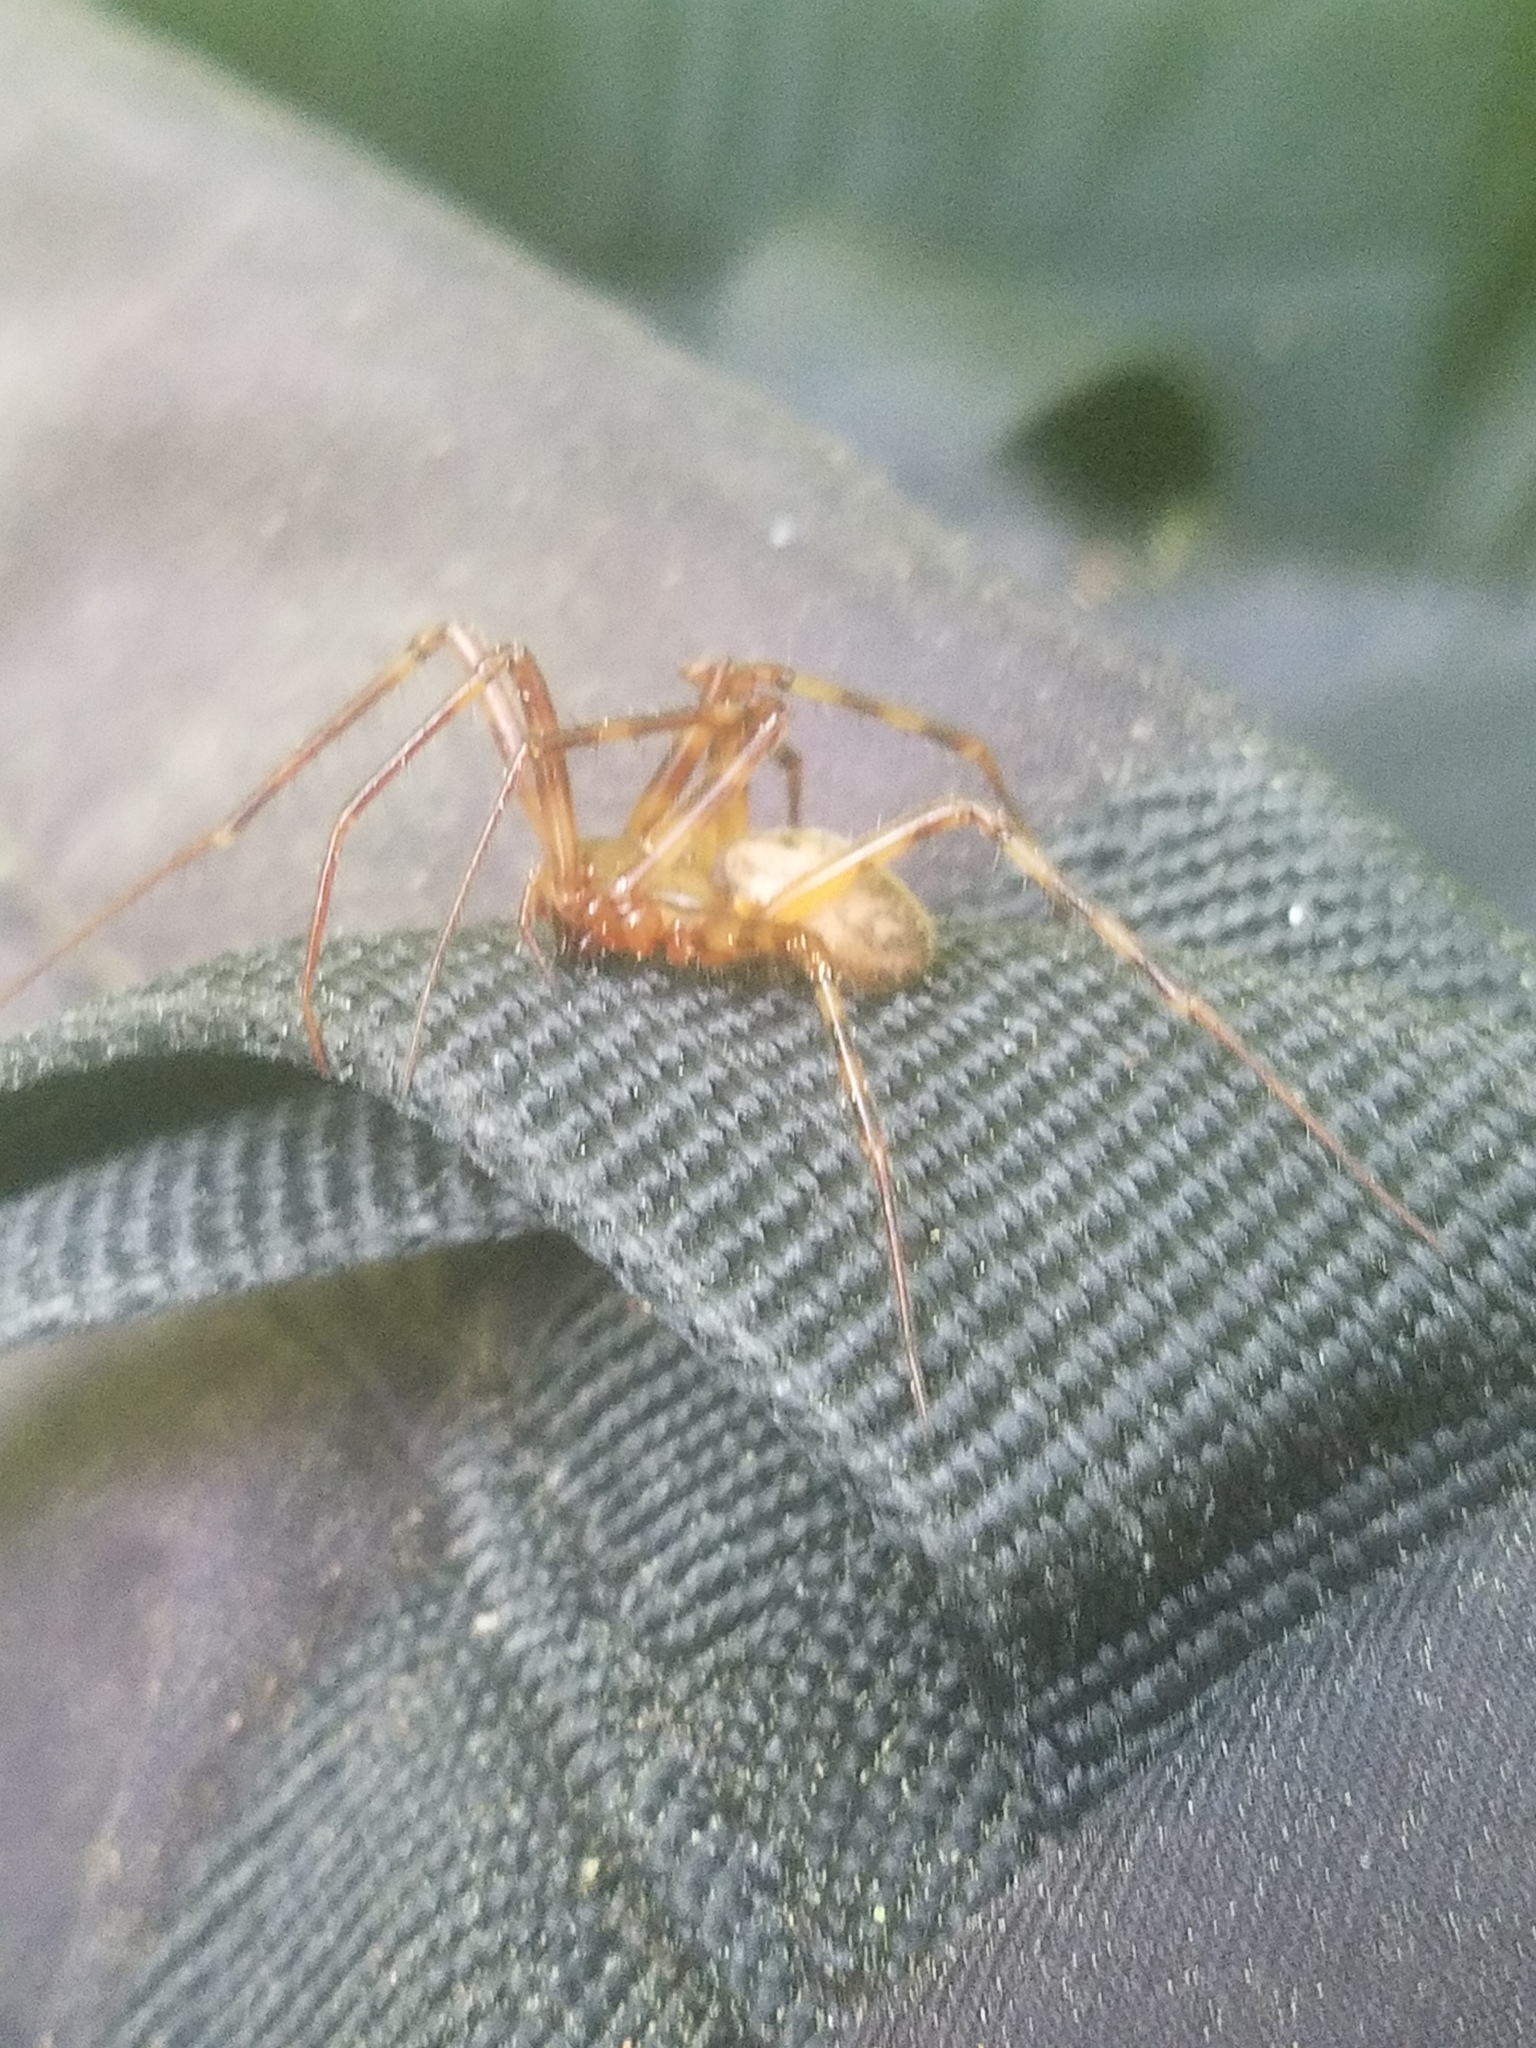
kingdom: Animalia
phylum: Arthropoda
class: Arachnida
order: Araneae
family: Pimoidae
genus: Pimoa
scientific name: Pimoa altioculata
